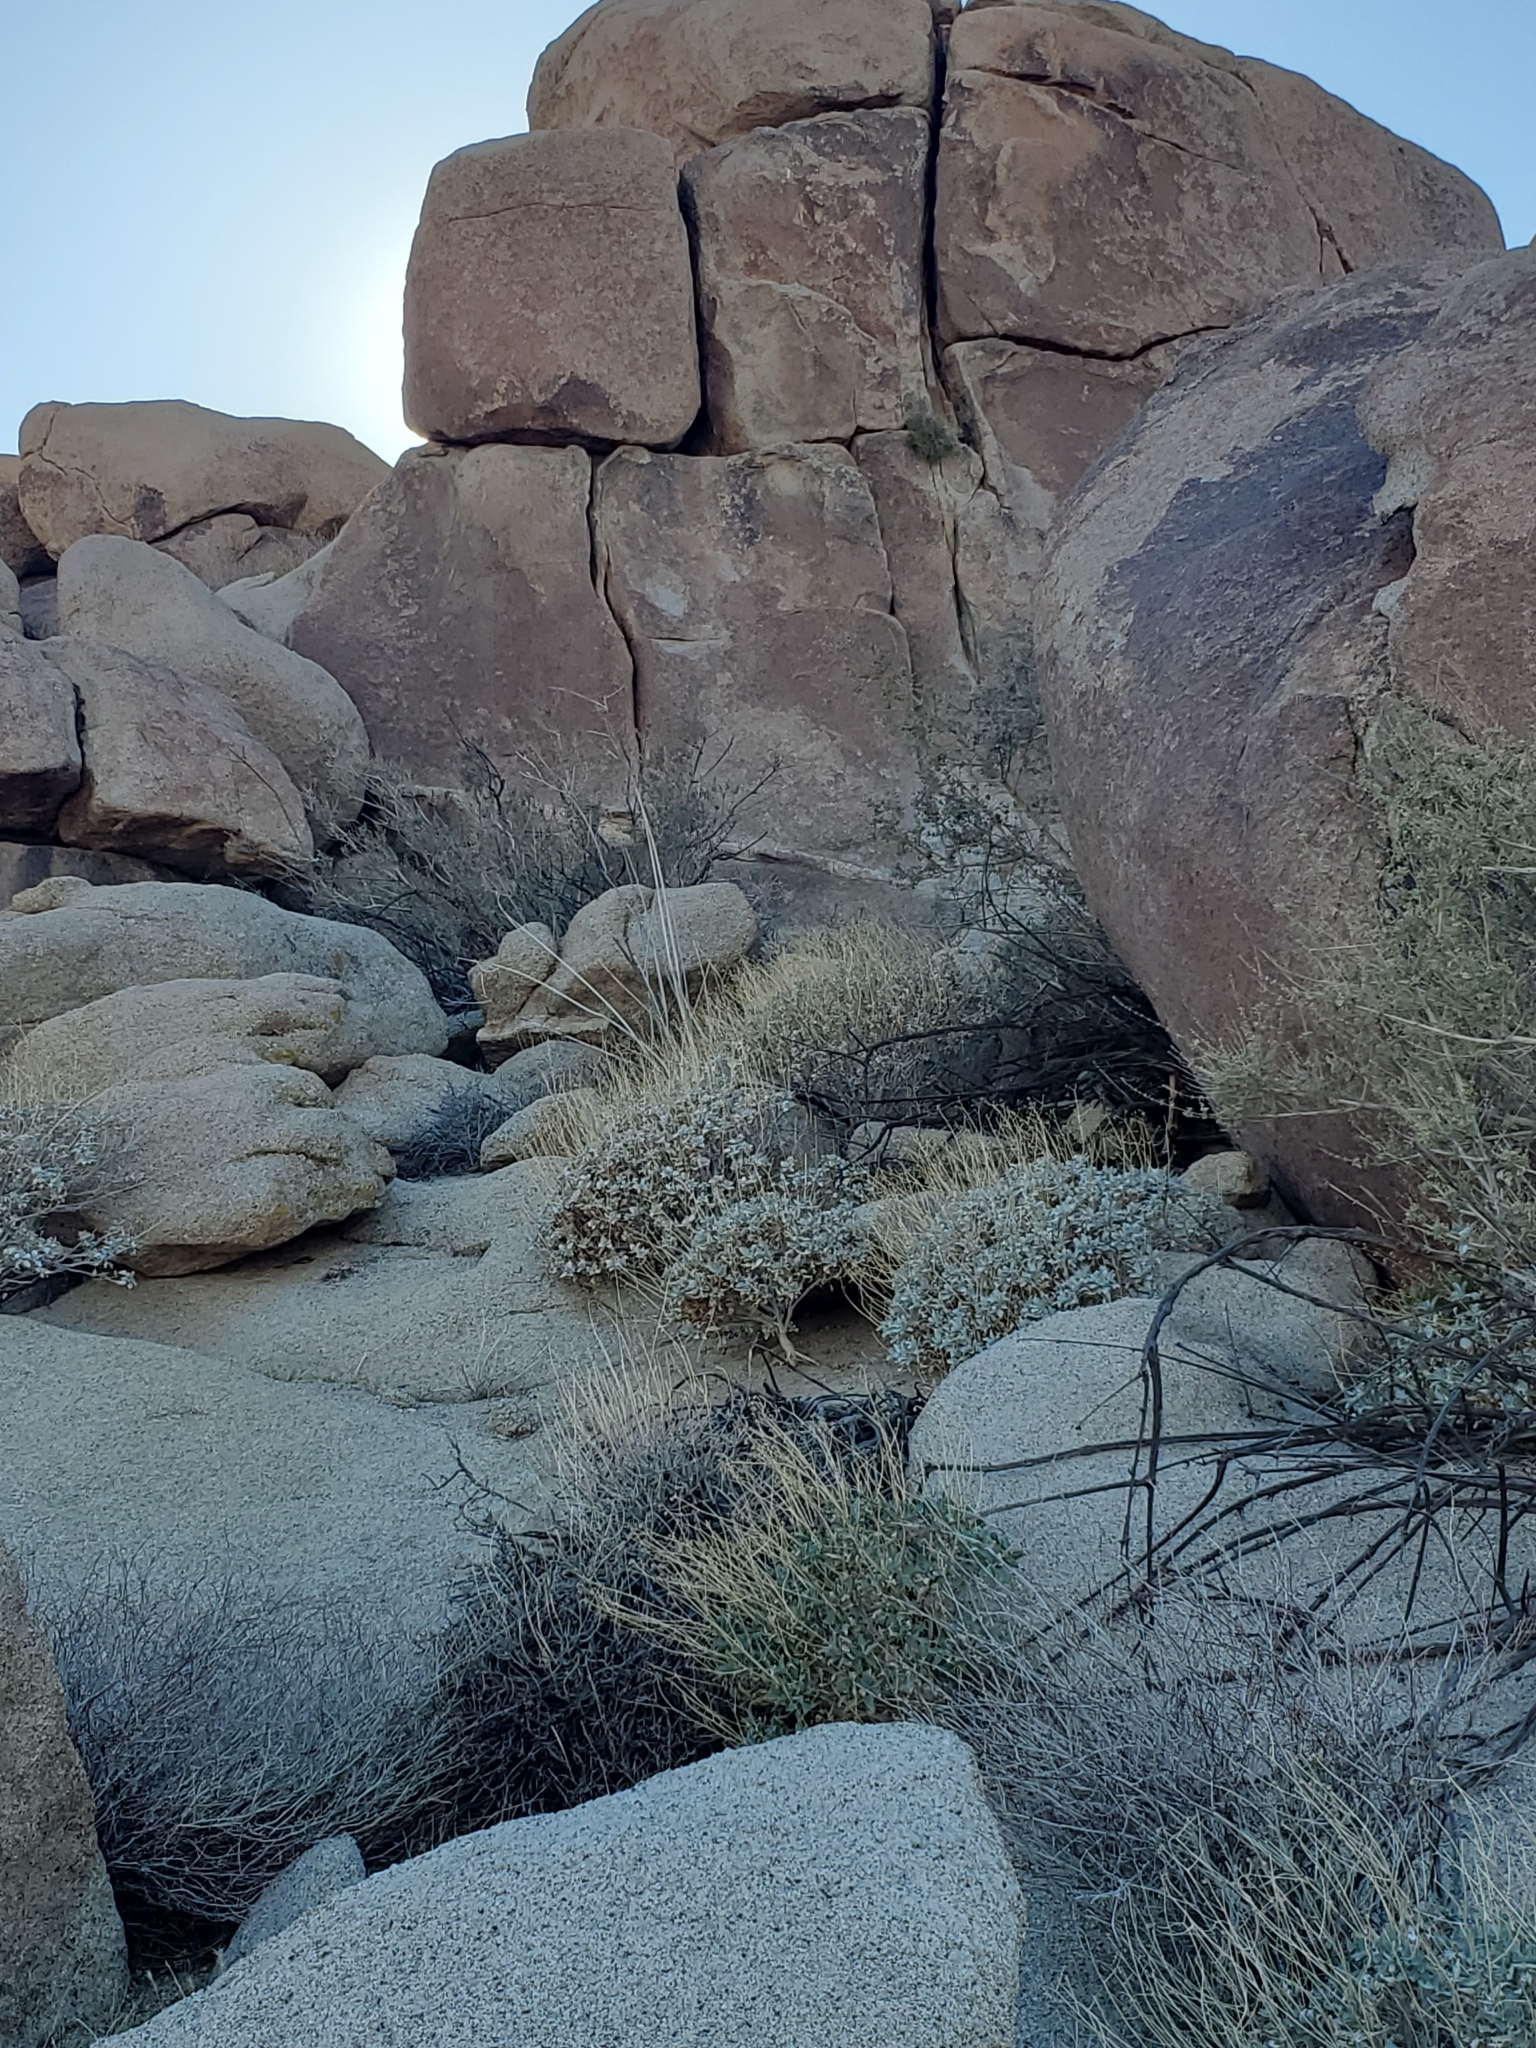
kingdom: Plantae
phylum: Tracheophyta
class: Magnoliopsida
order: Gentianales
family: Apocynaceae
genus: Asclepias
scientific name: Asclepias albicans
